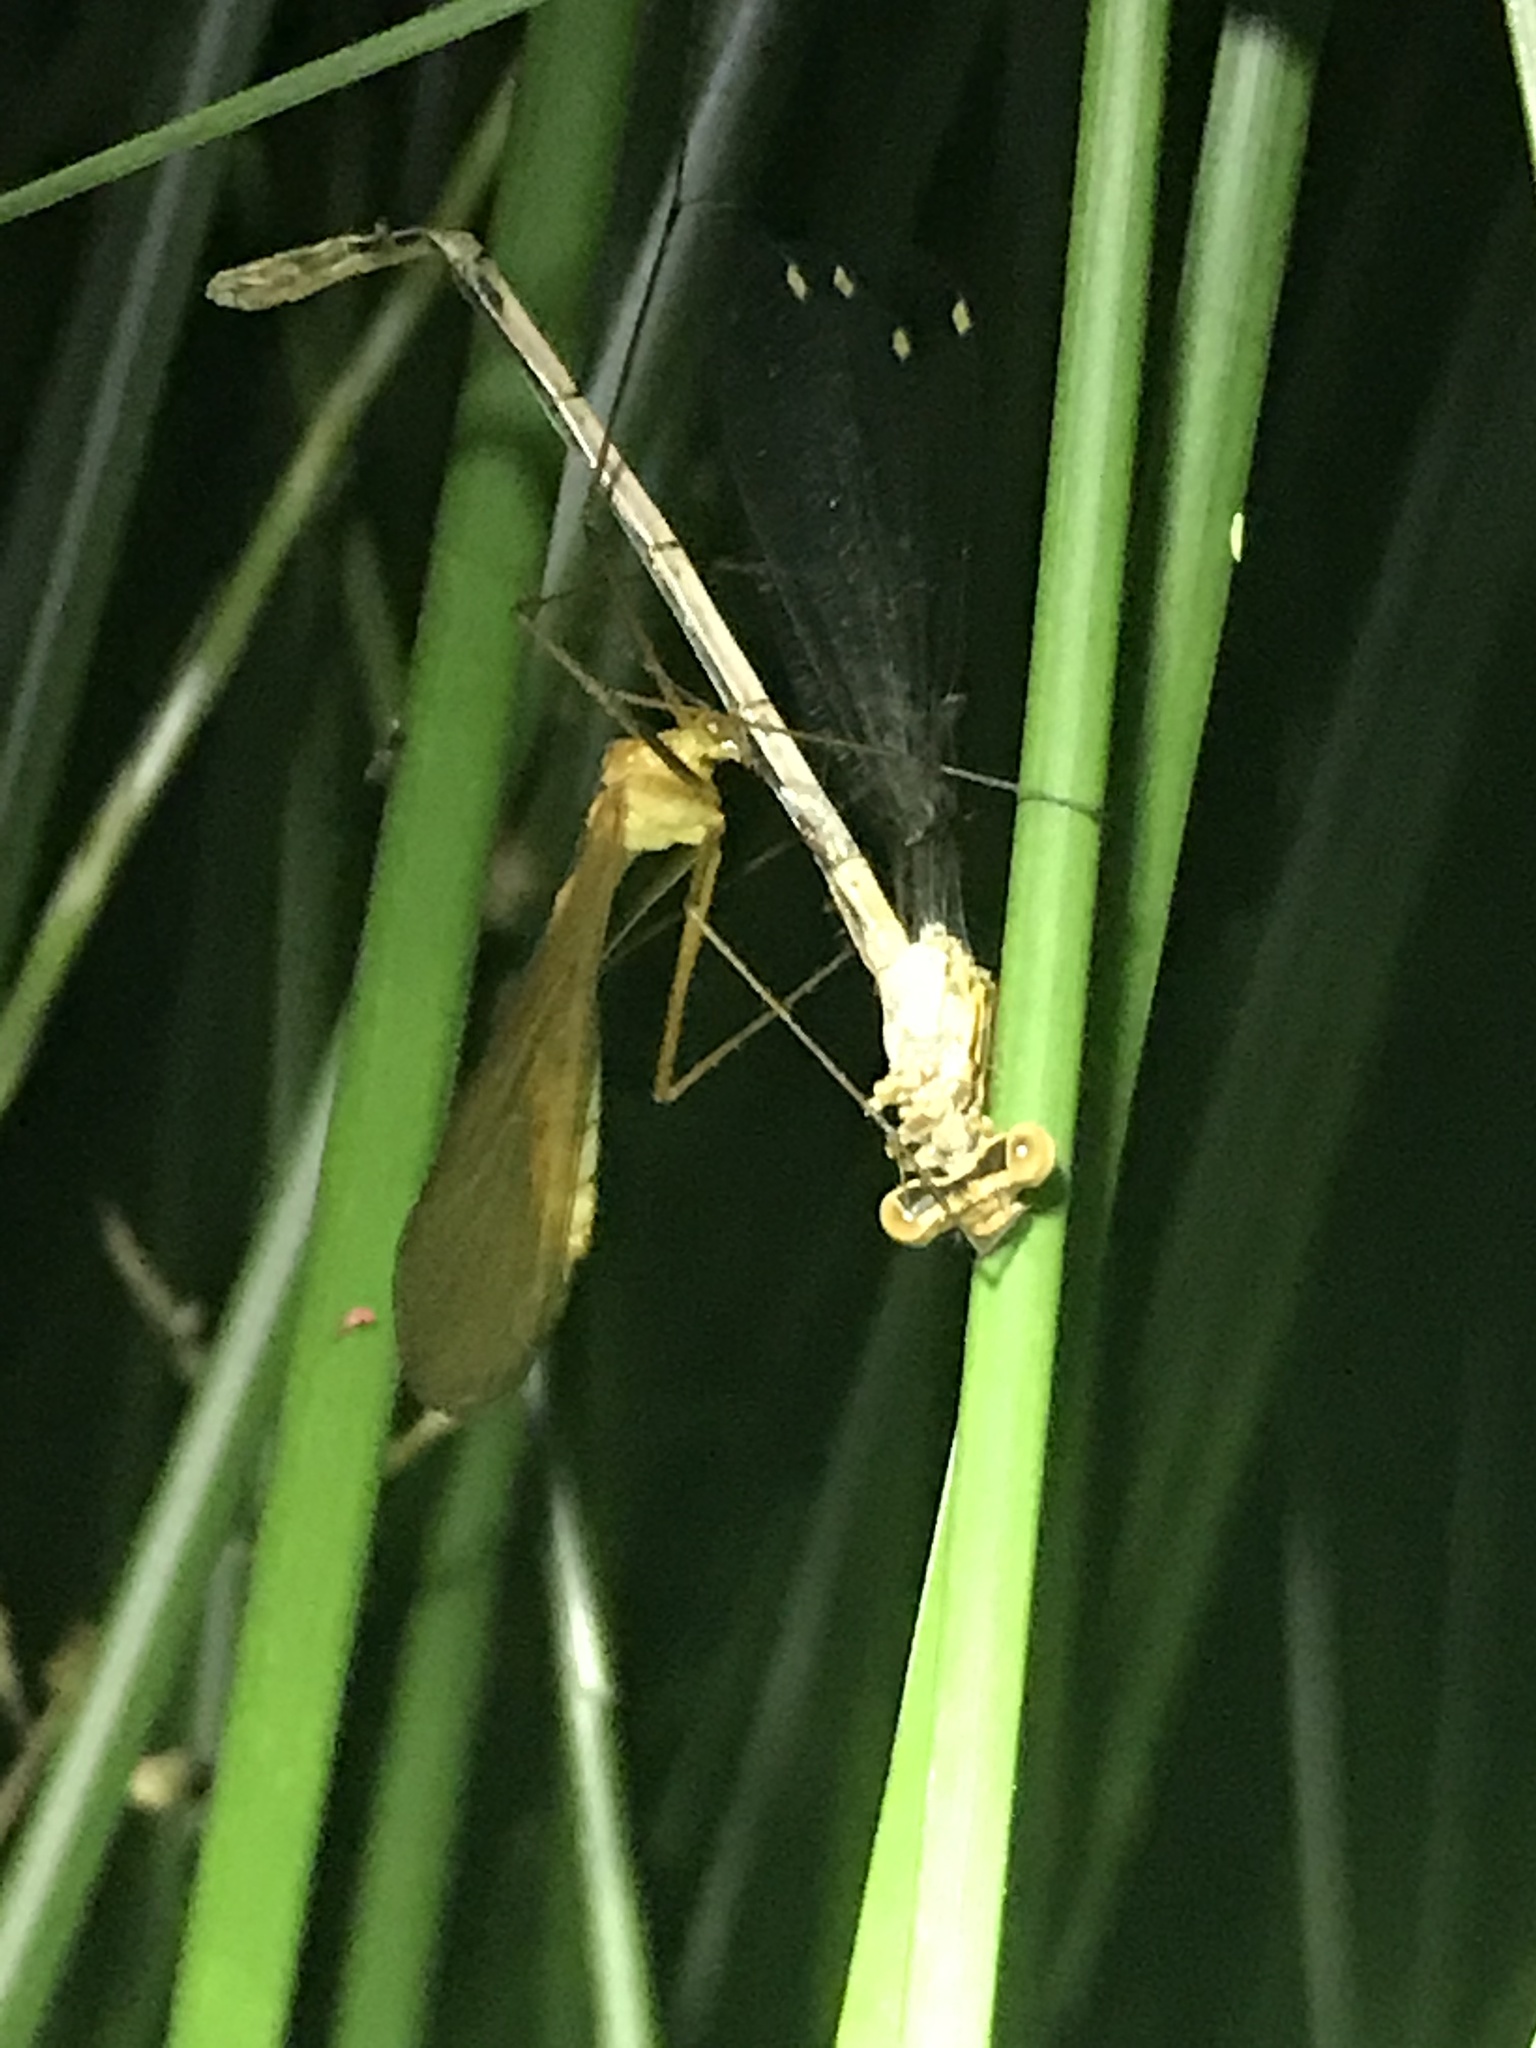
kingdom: Animalia
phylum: Arthropoda
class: Insecta
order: Mecoptera
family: Bittacidae
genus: Bittacus
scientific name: Bittacus italicus
